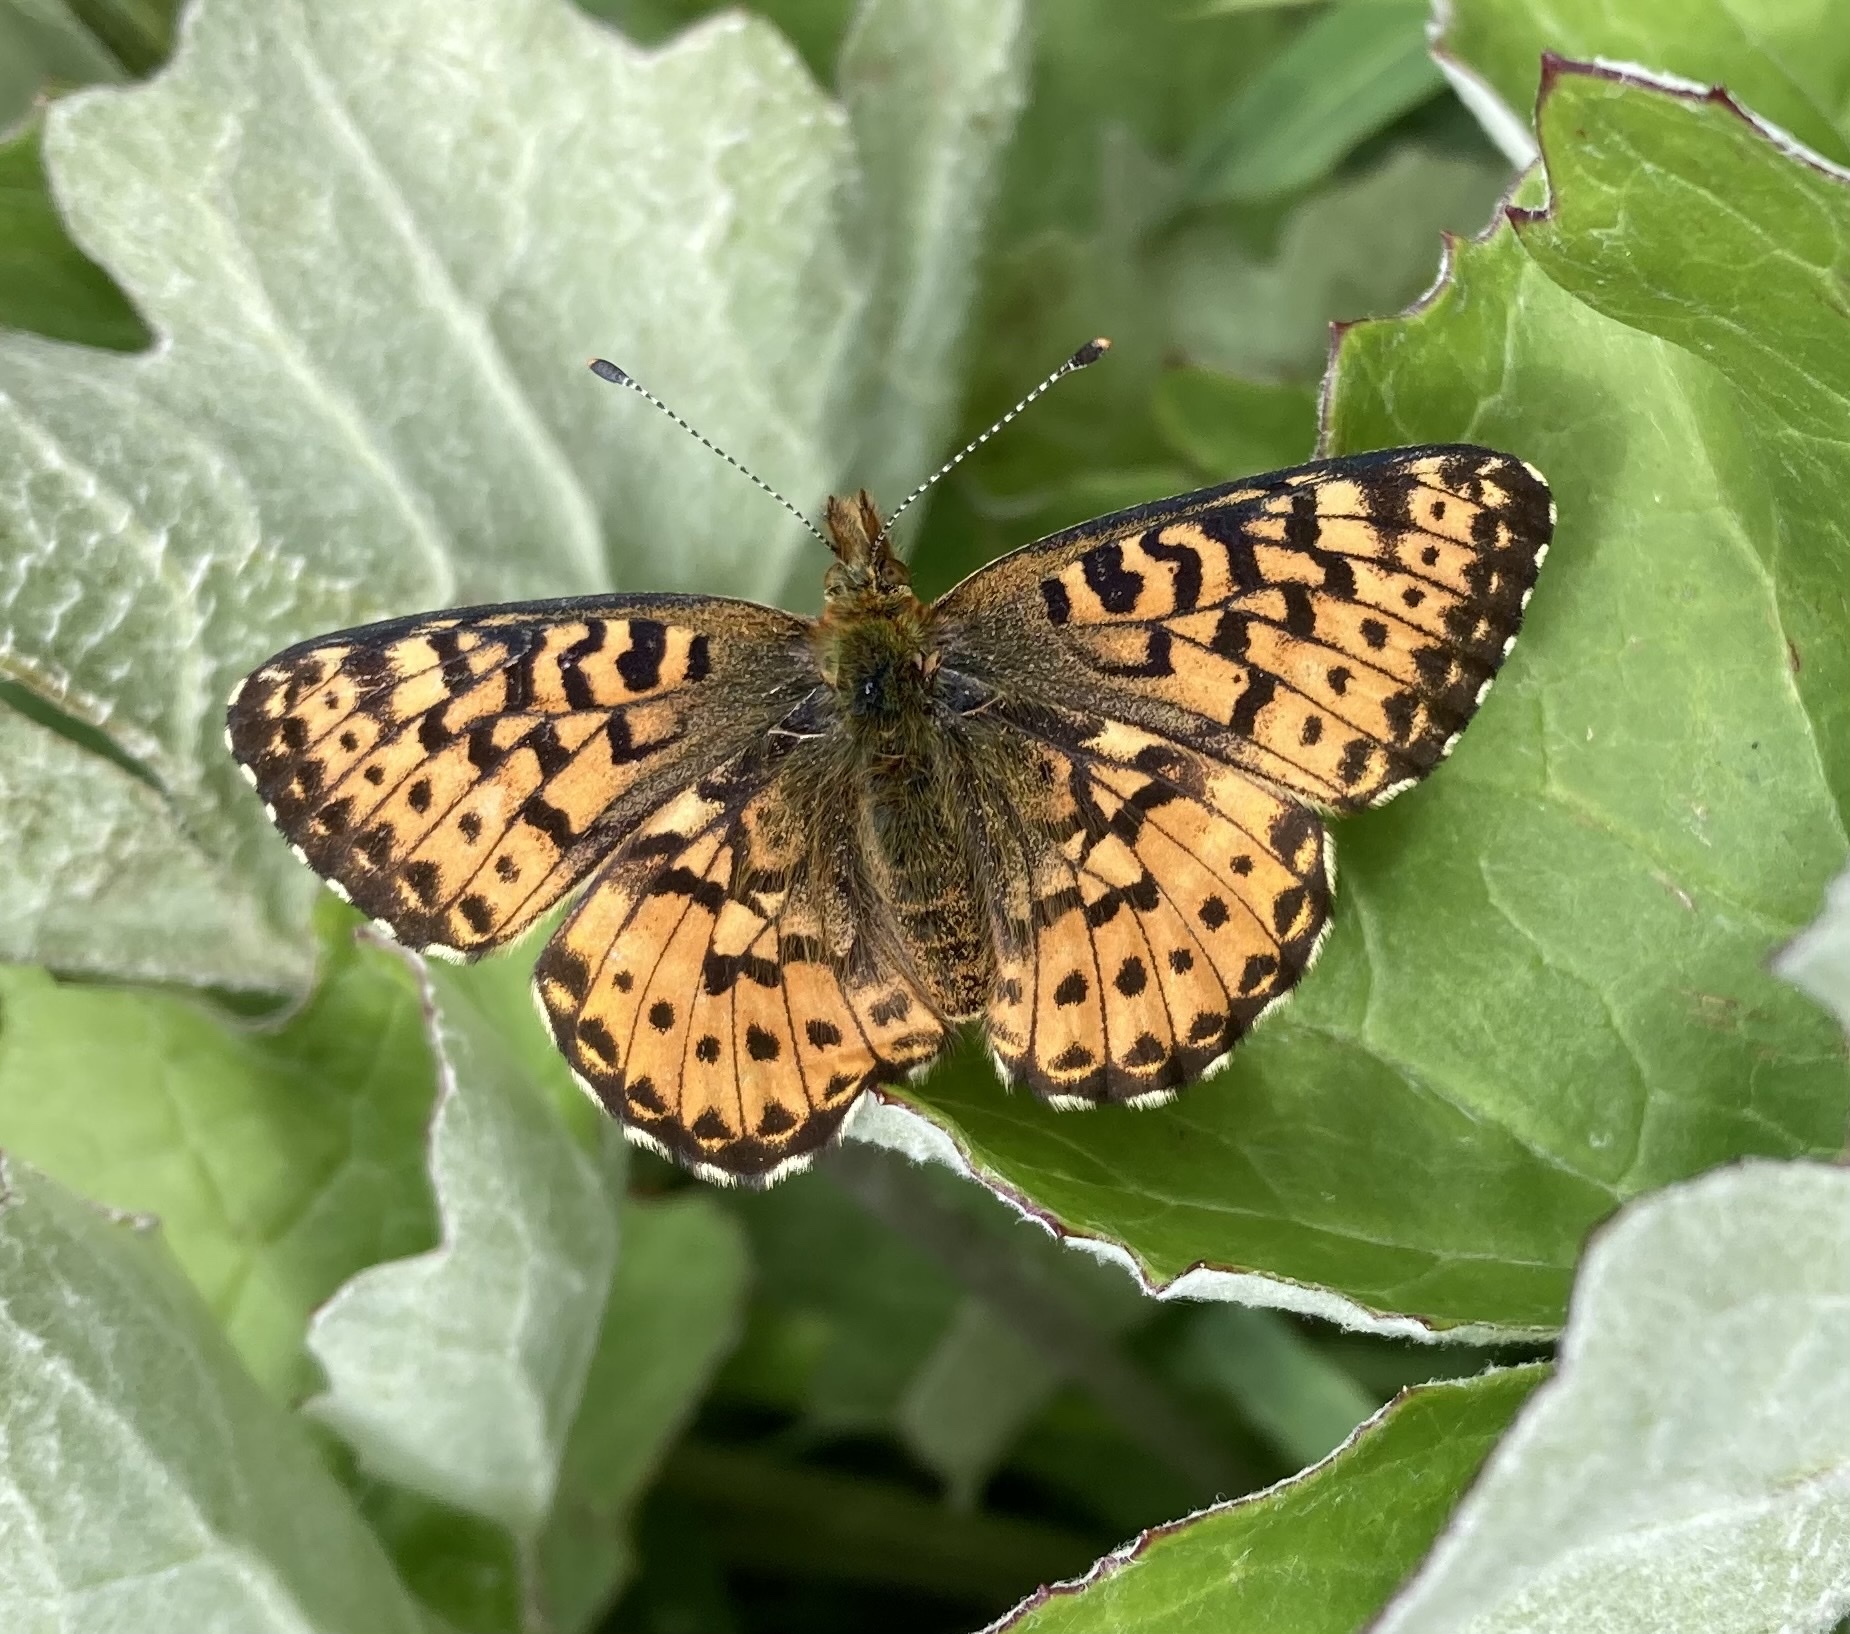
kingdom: Animalia
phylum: Arthropoda
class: Insecta
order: Lepidoptera
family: Nymphalidae
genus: Boloria
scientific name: Boloria chariclea
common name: Arctic fritillary
